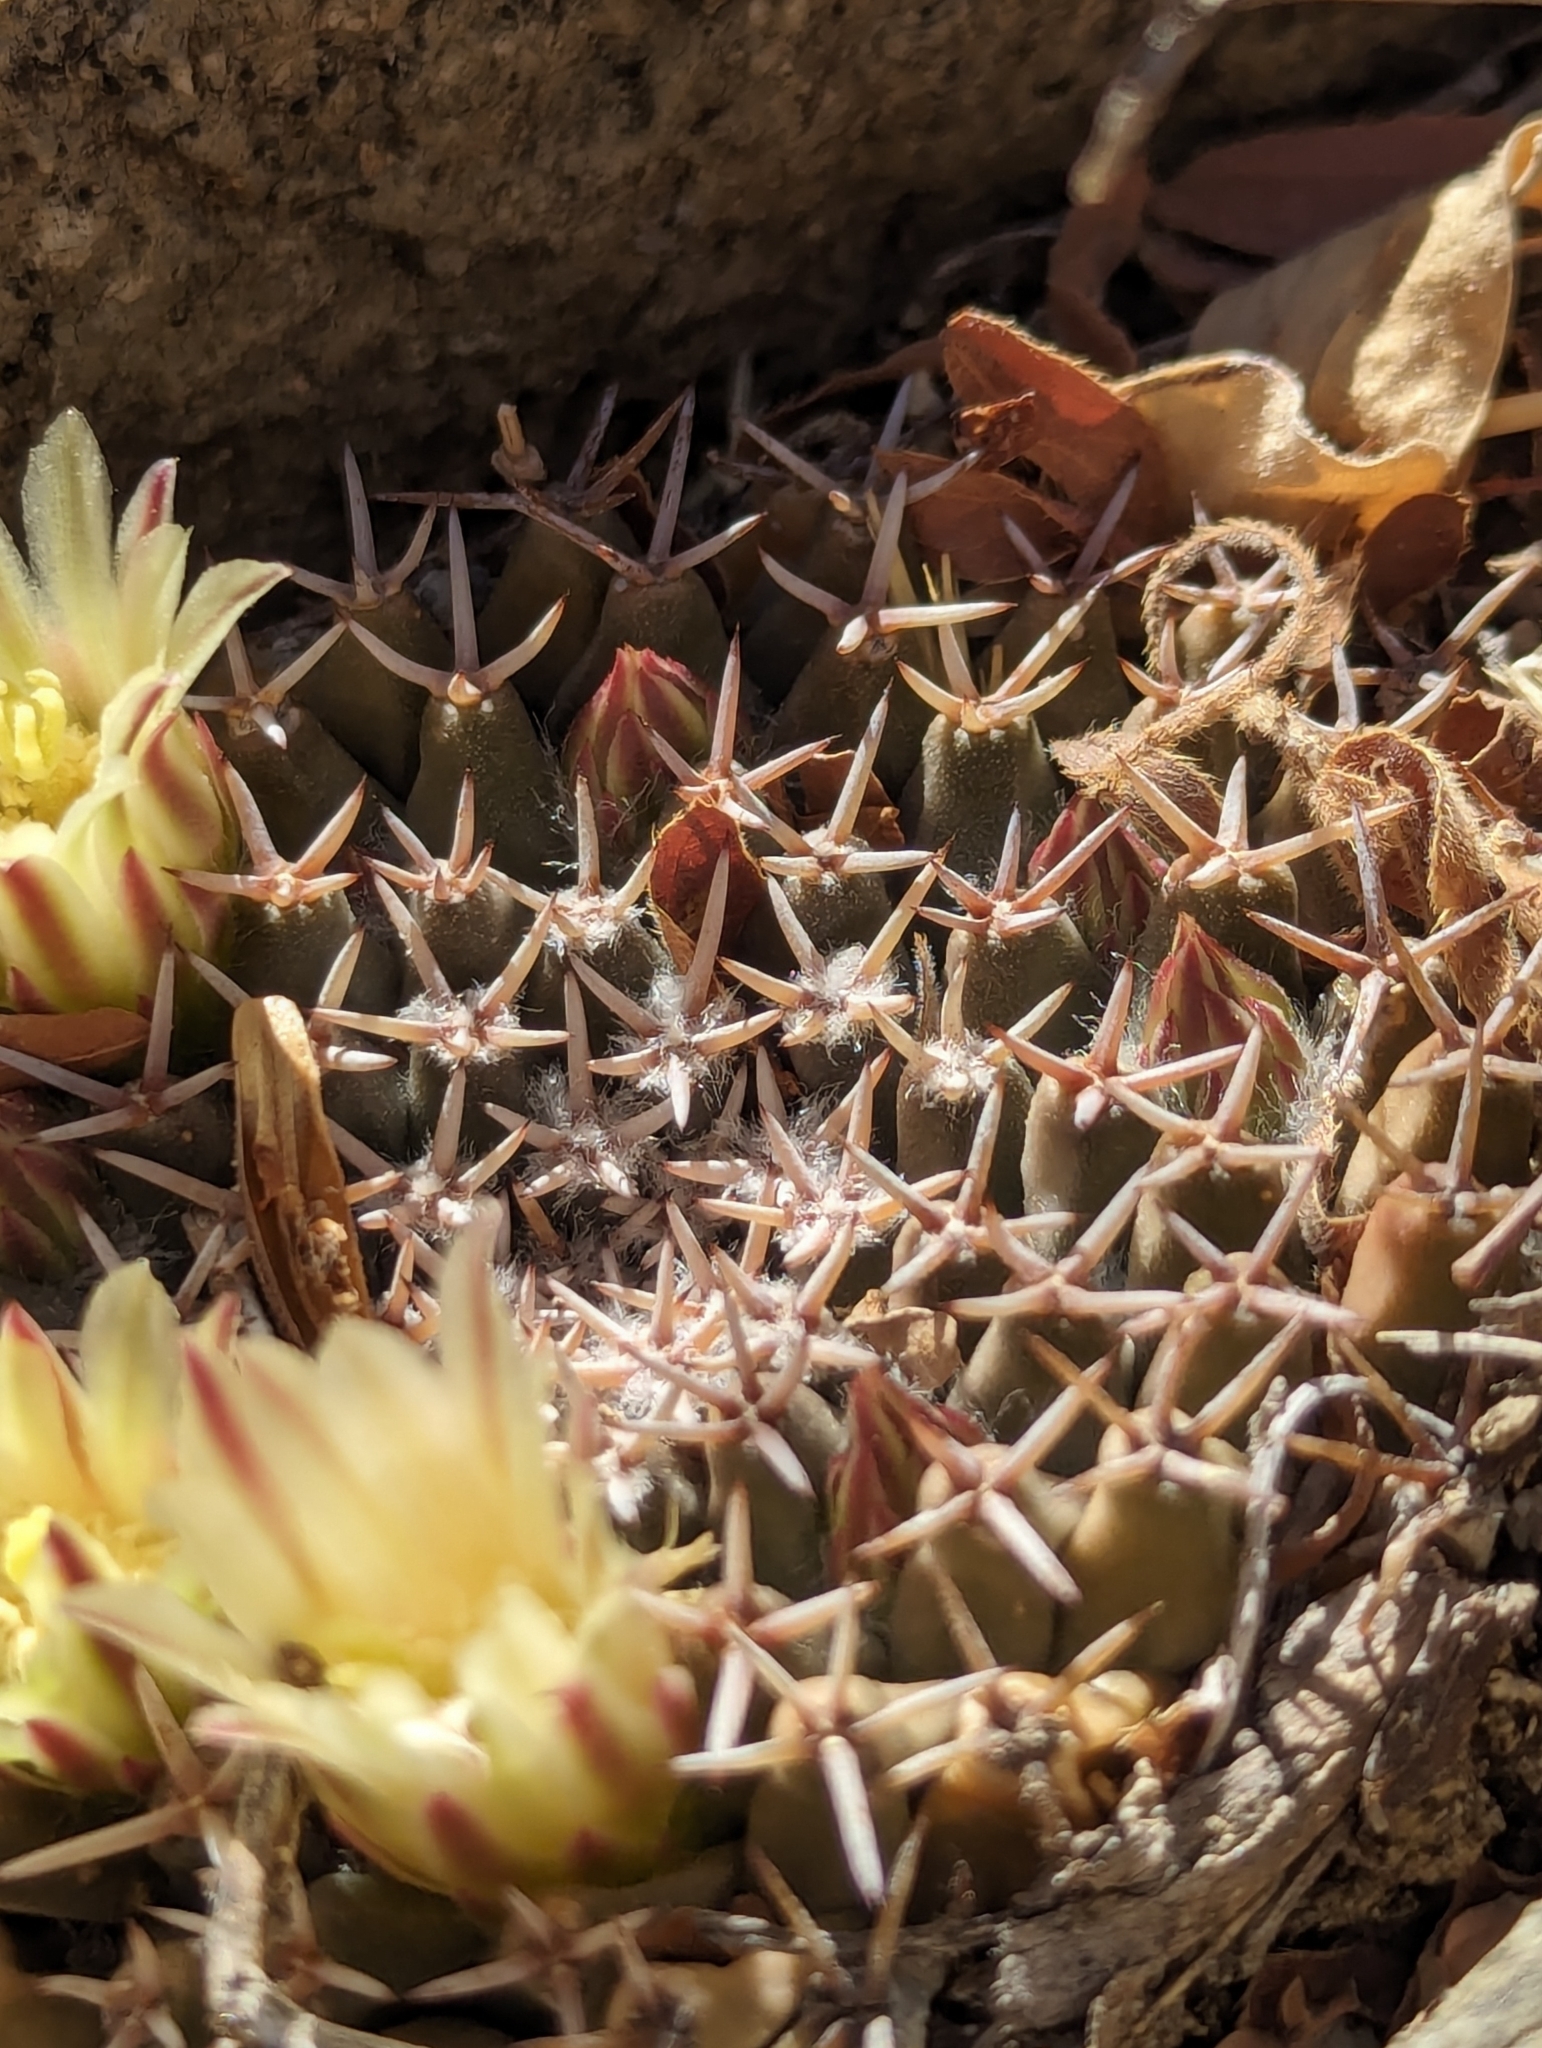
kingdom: Plantae
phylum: Tracheophyta
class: Magnoliopsida
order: Caryophyllales
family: Cactaceae
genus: Mammillaria
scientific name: Mammillaria peninsularis
